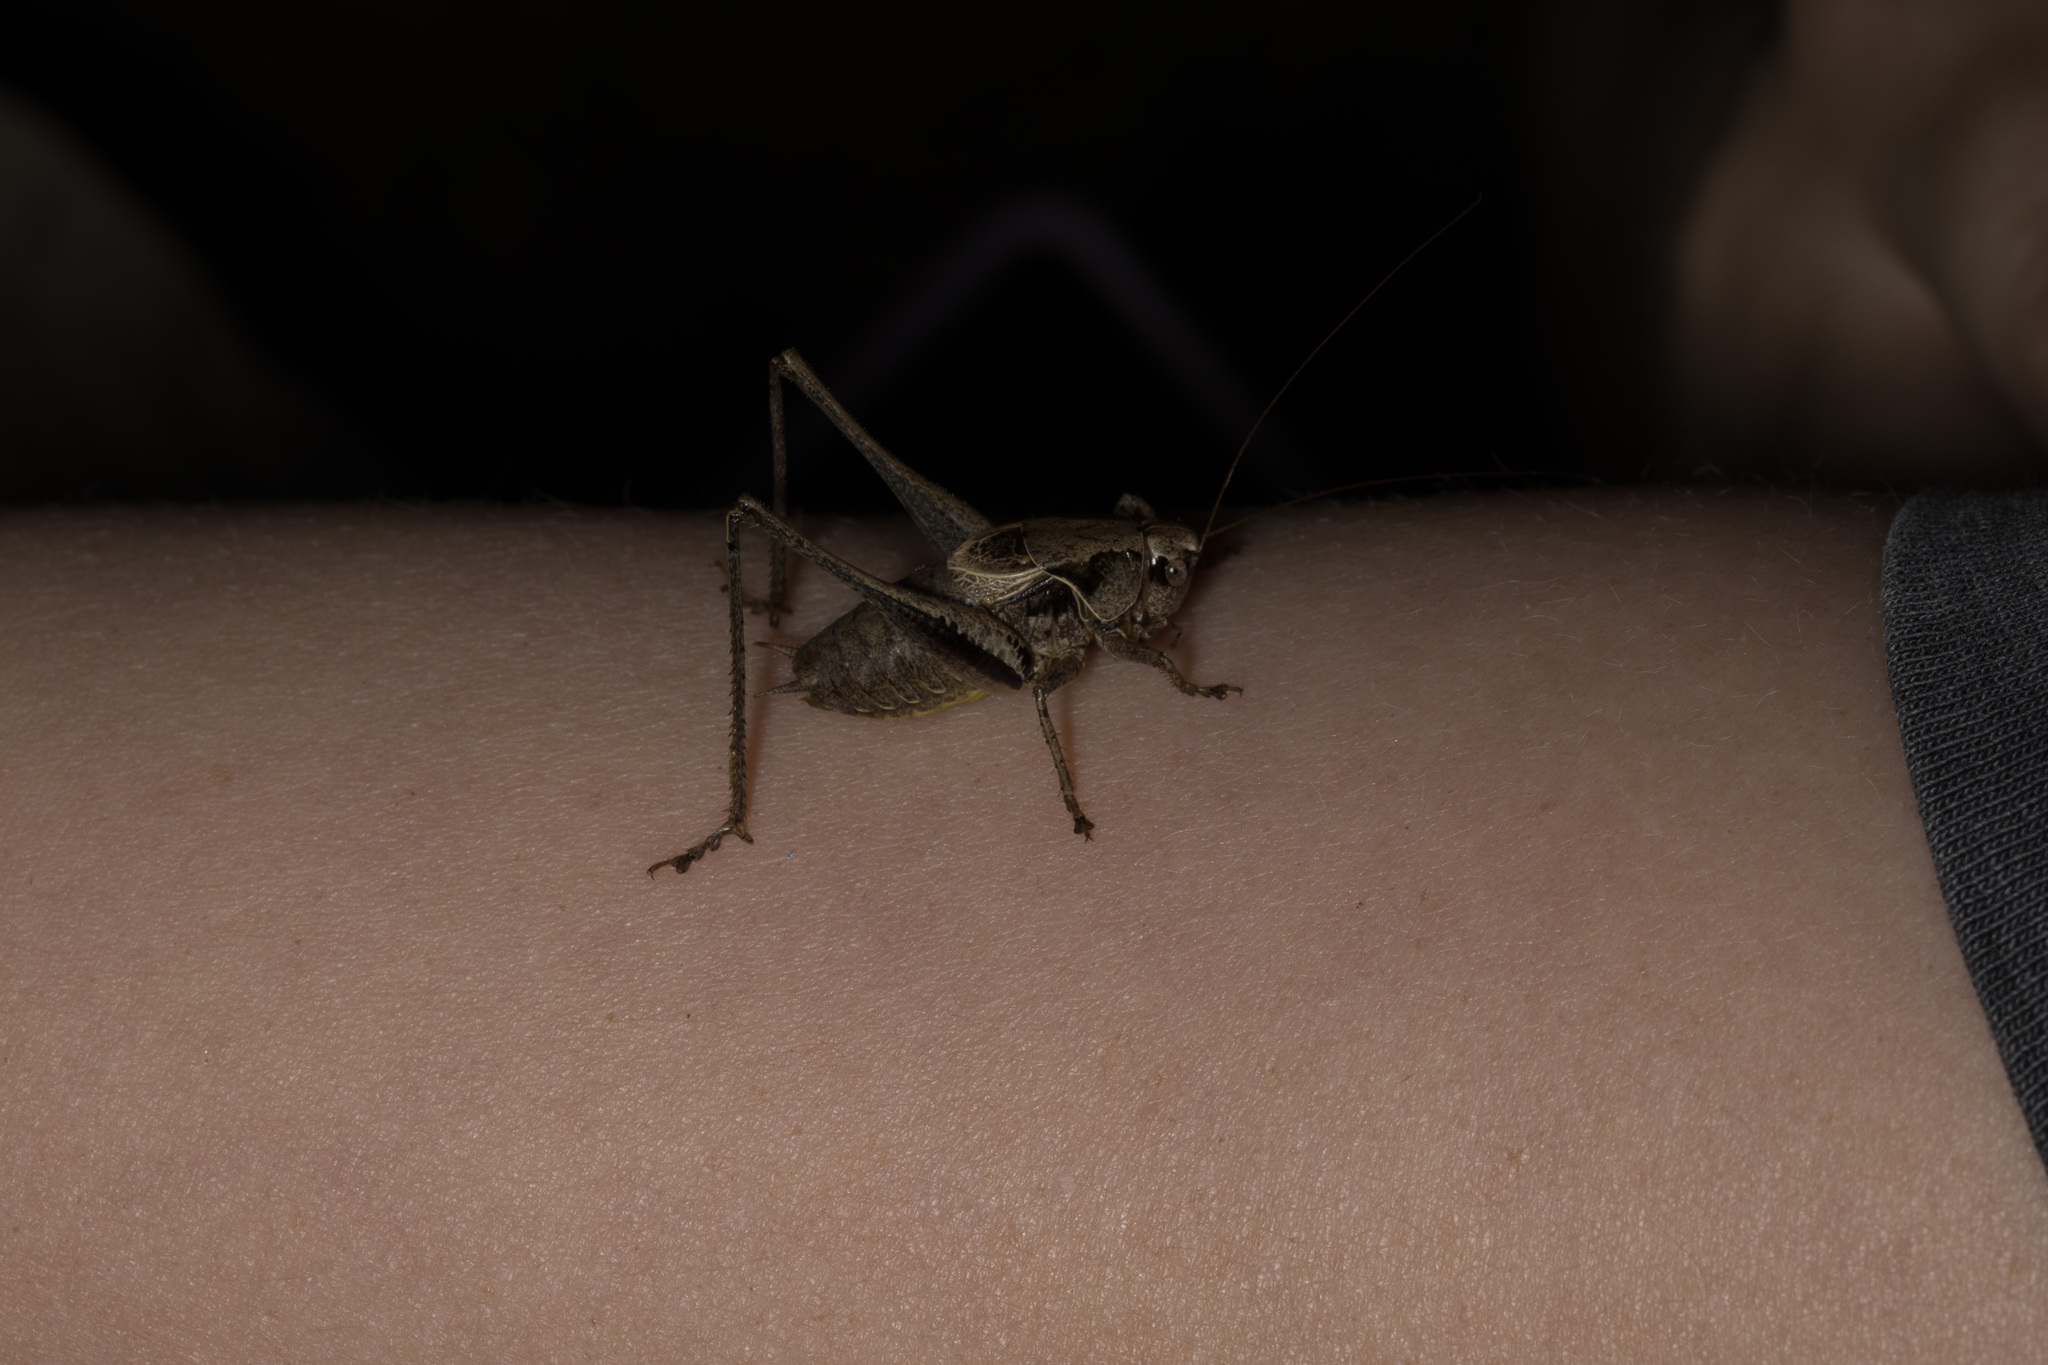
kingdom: Animalia
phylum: Arthropoda
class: Insecta
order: Orthoptera
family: Tettigoniidae
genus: Pholidoptera
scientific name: Pholidoptera griseoaptera
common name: Dark bush-cricket
